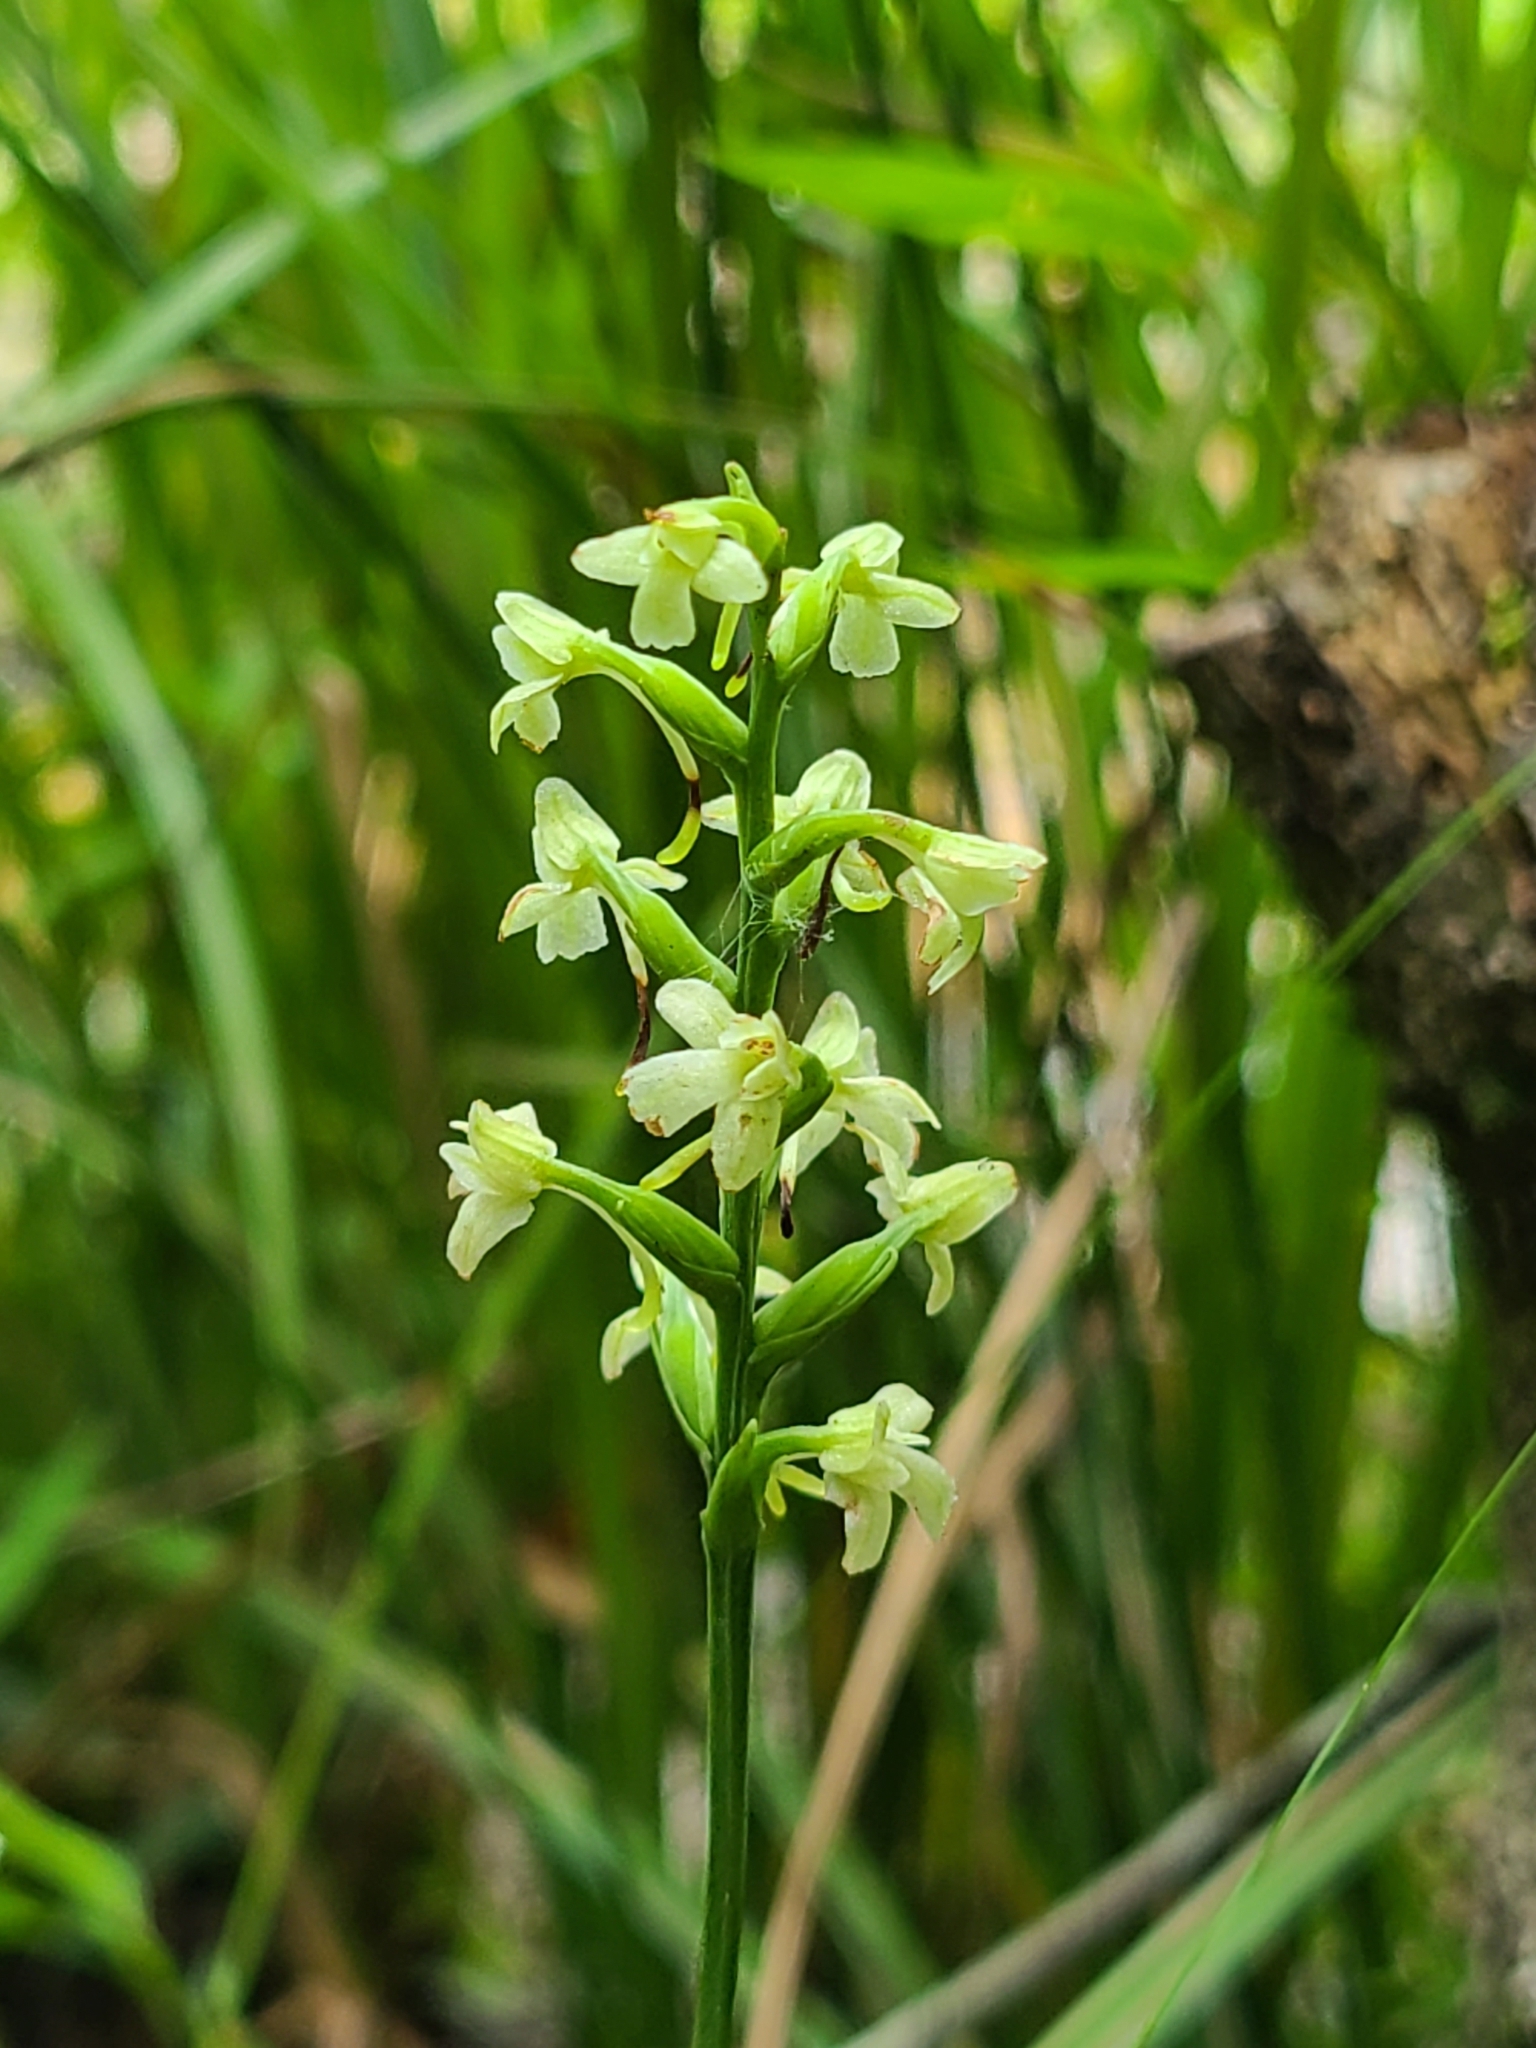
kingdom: Plantae
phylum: Tracheophyta
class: Liliopsida
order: Asparagales
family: Orchidaceae
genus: Platanthera
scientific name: Platanthera clavellata
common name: Club-spur orchid
